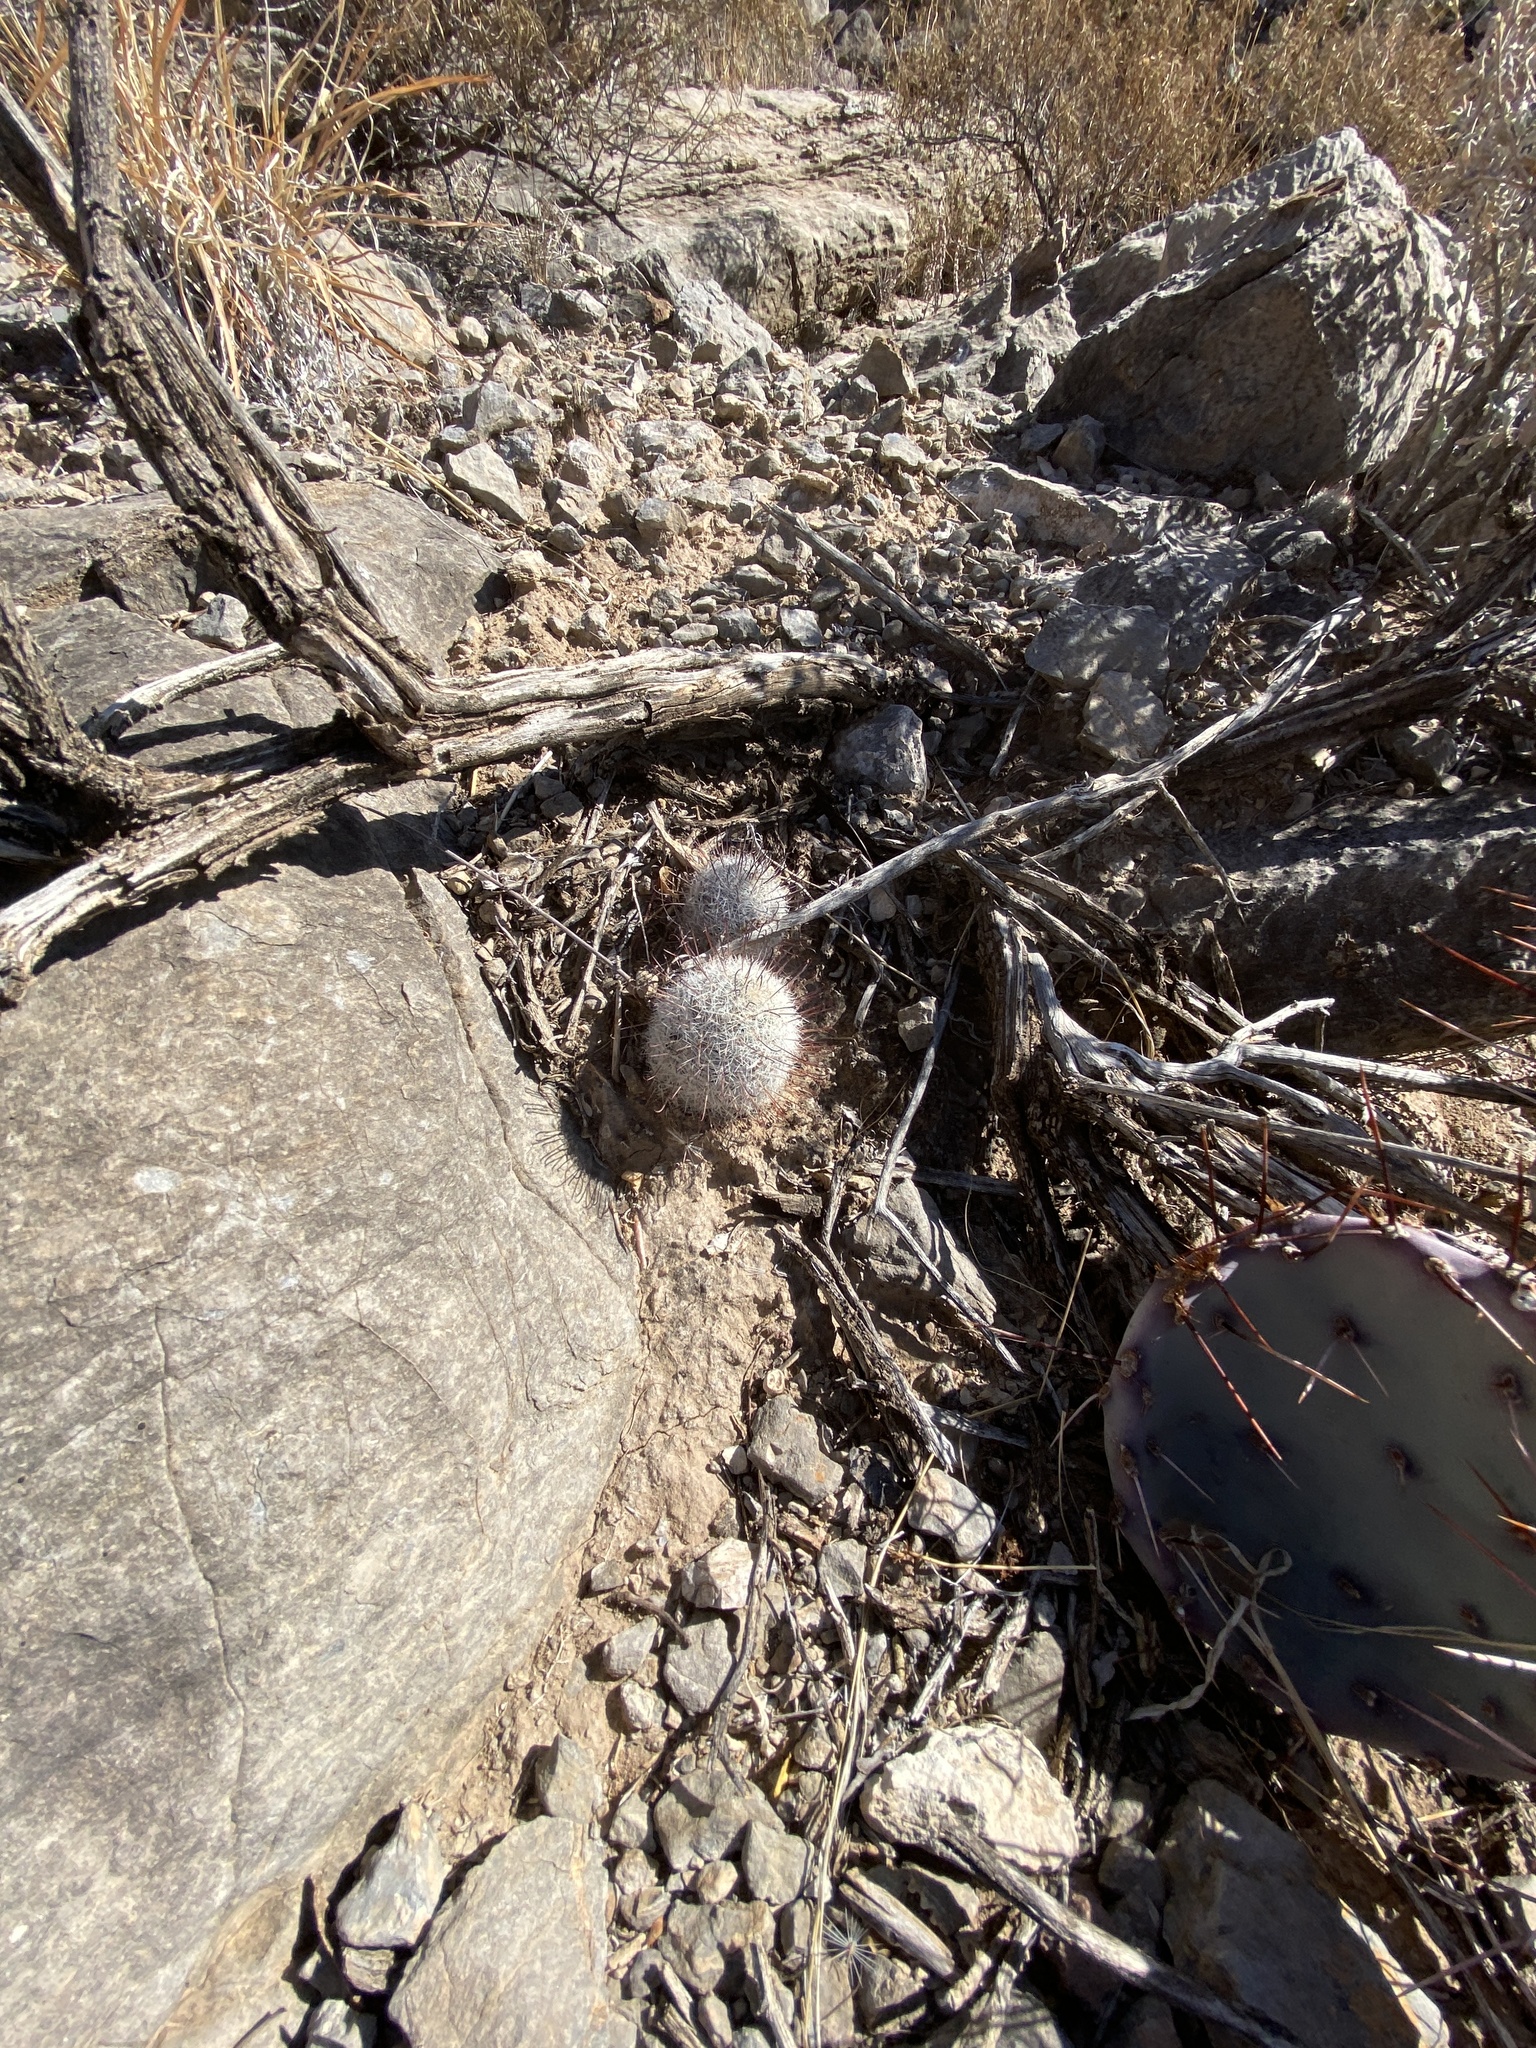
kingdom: Plantae
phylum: Tracheophyta
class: Magnoliopsida
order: Caryophyllales
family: Cactaceae
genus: Cochemiea
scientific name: Cochemiea grahamii
